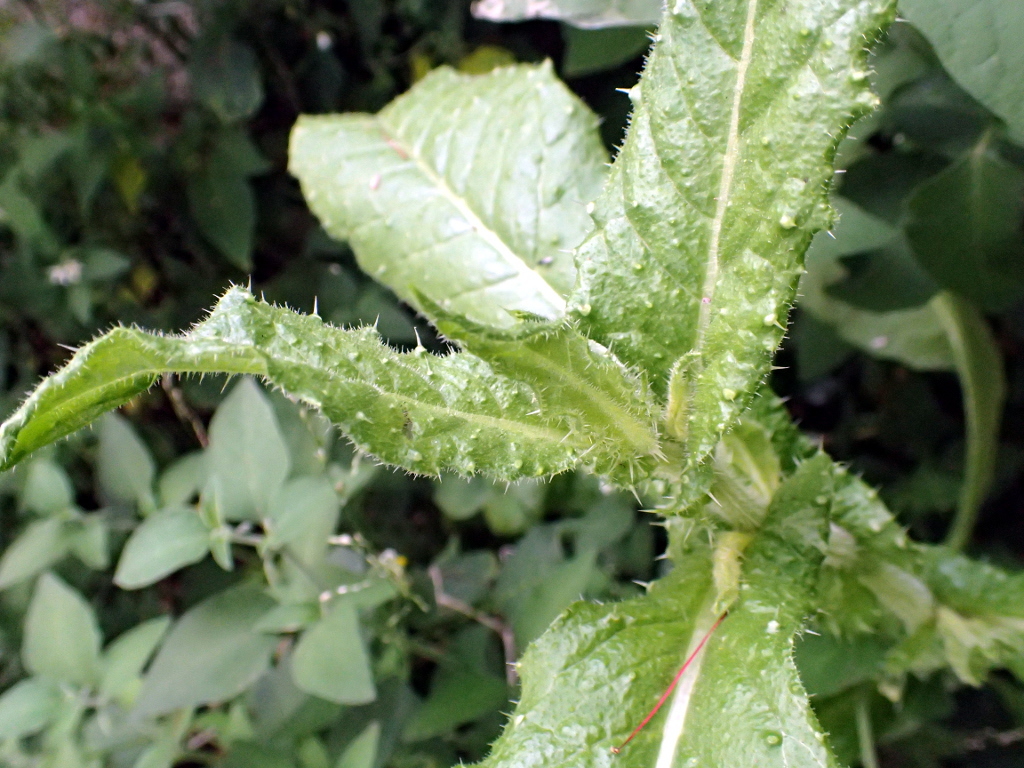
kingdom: Plantae
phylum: Tracheophyta
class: Magnoliopsida
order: Asterales
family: Asteraceae
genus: Helminthotheca
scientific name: Helminthotheca echioides
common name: Ox-tongue
